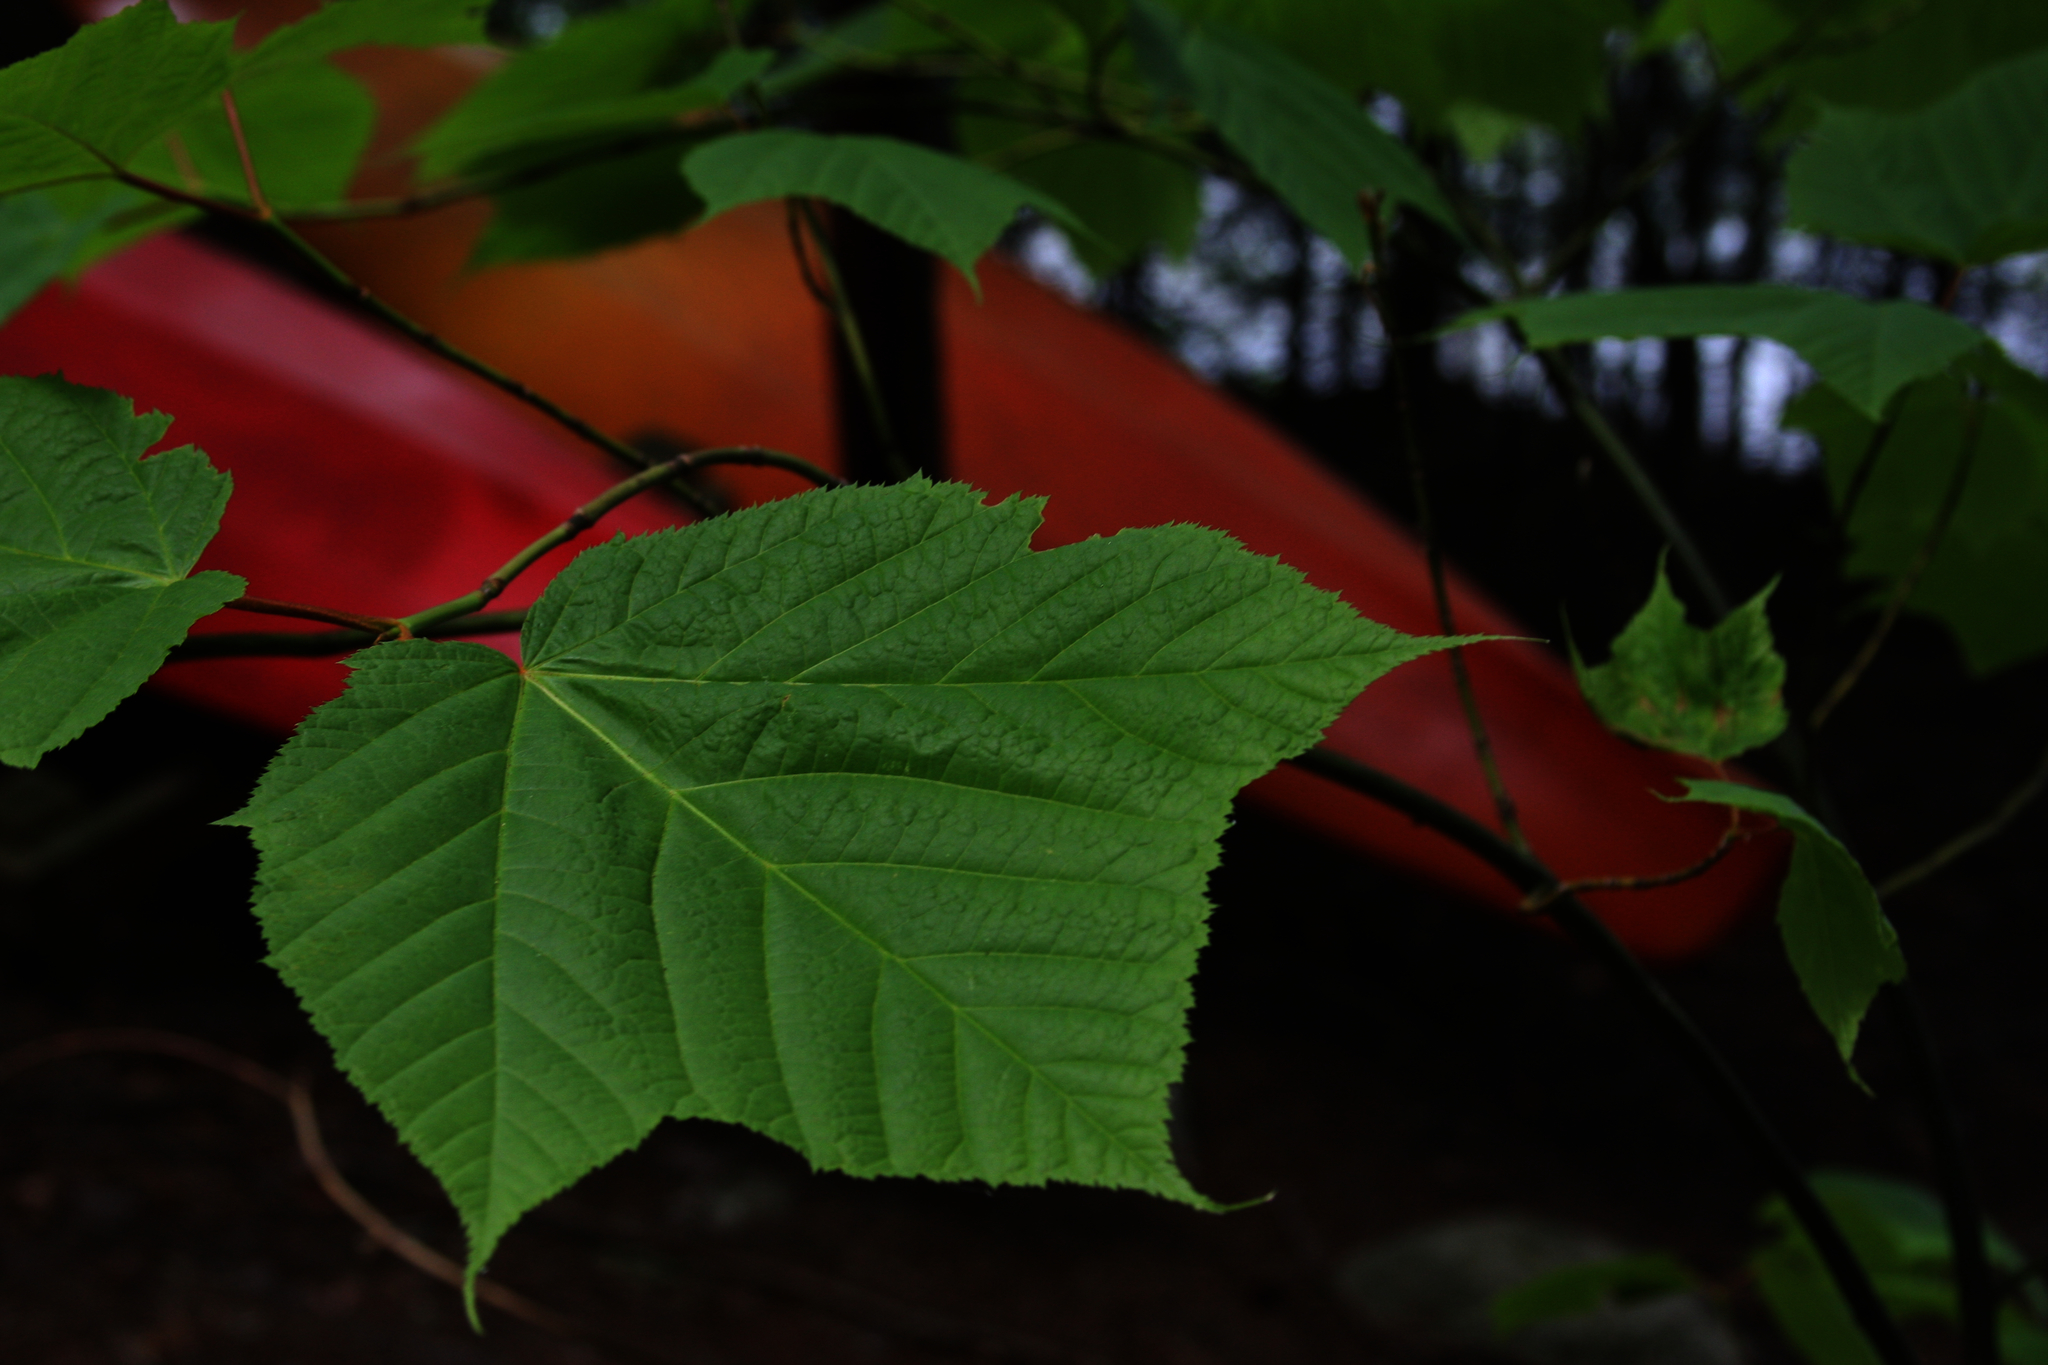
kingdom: Plantae
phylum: Tracheophyta
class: Magnoliopsida
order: Sapindales
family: Sapindaceae
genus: Acer
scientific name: Acer pensylvanicum
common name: Moosewood
